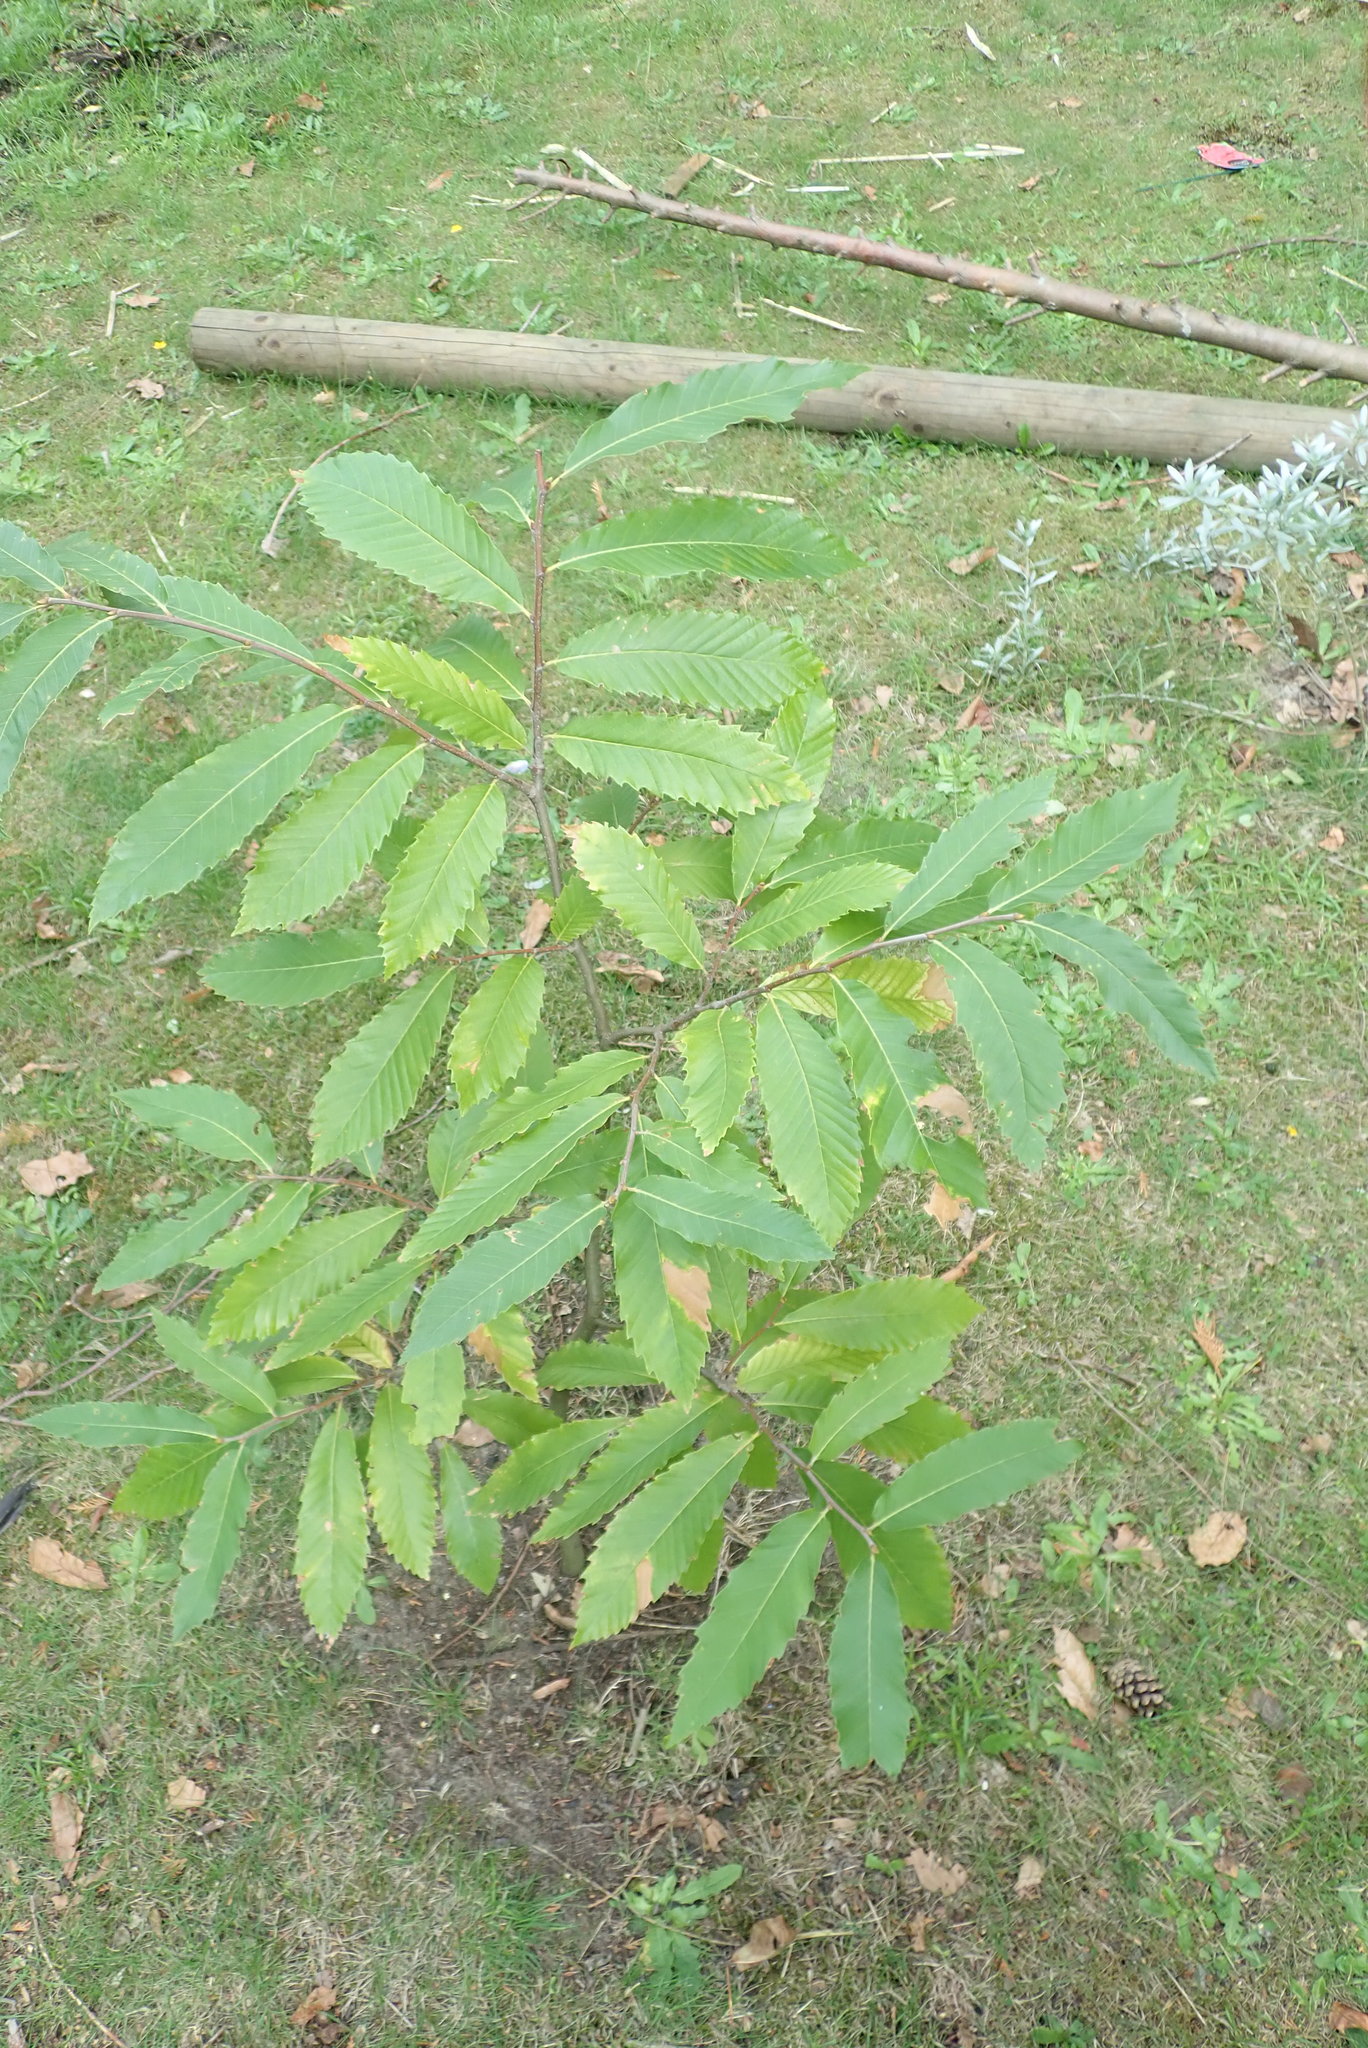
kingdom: Plantae
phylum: Tracheophyta
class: Magnoliopsida
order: Fagales
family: Fagaceae
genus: Castanea
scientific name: Castanea sativa
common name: Sweet chestnut
